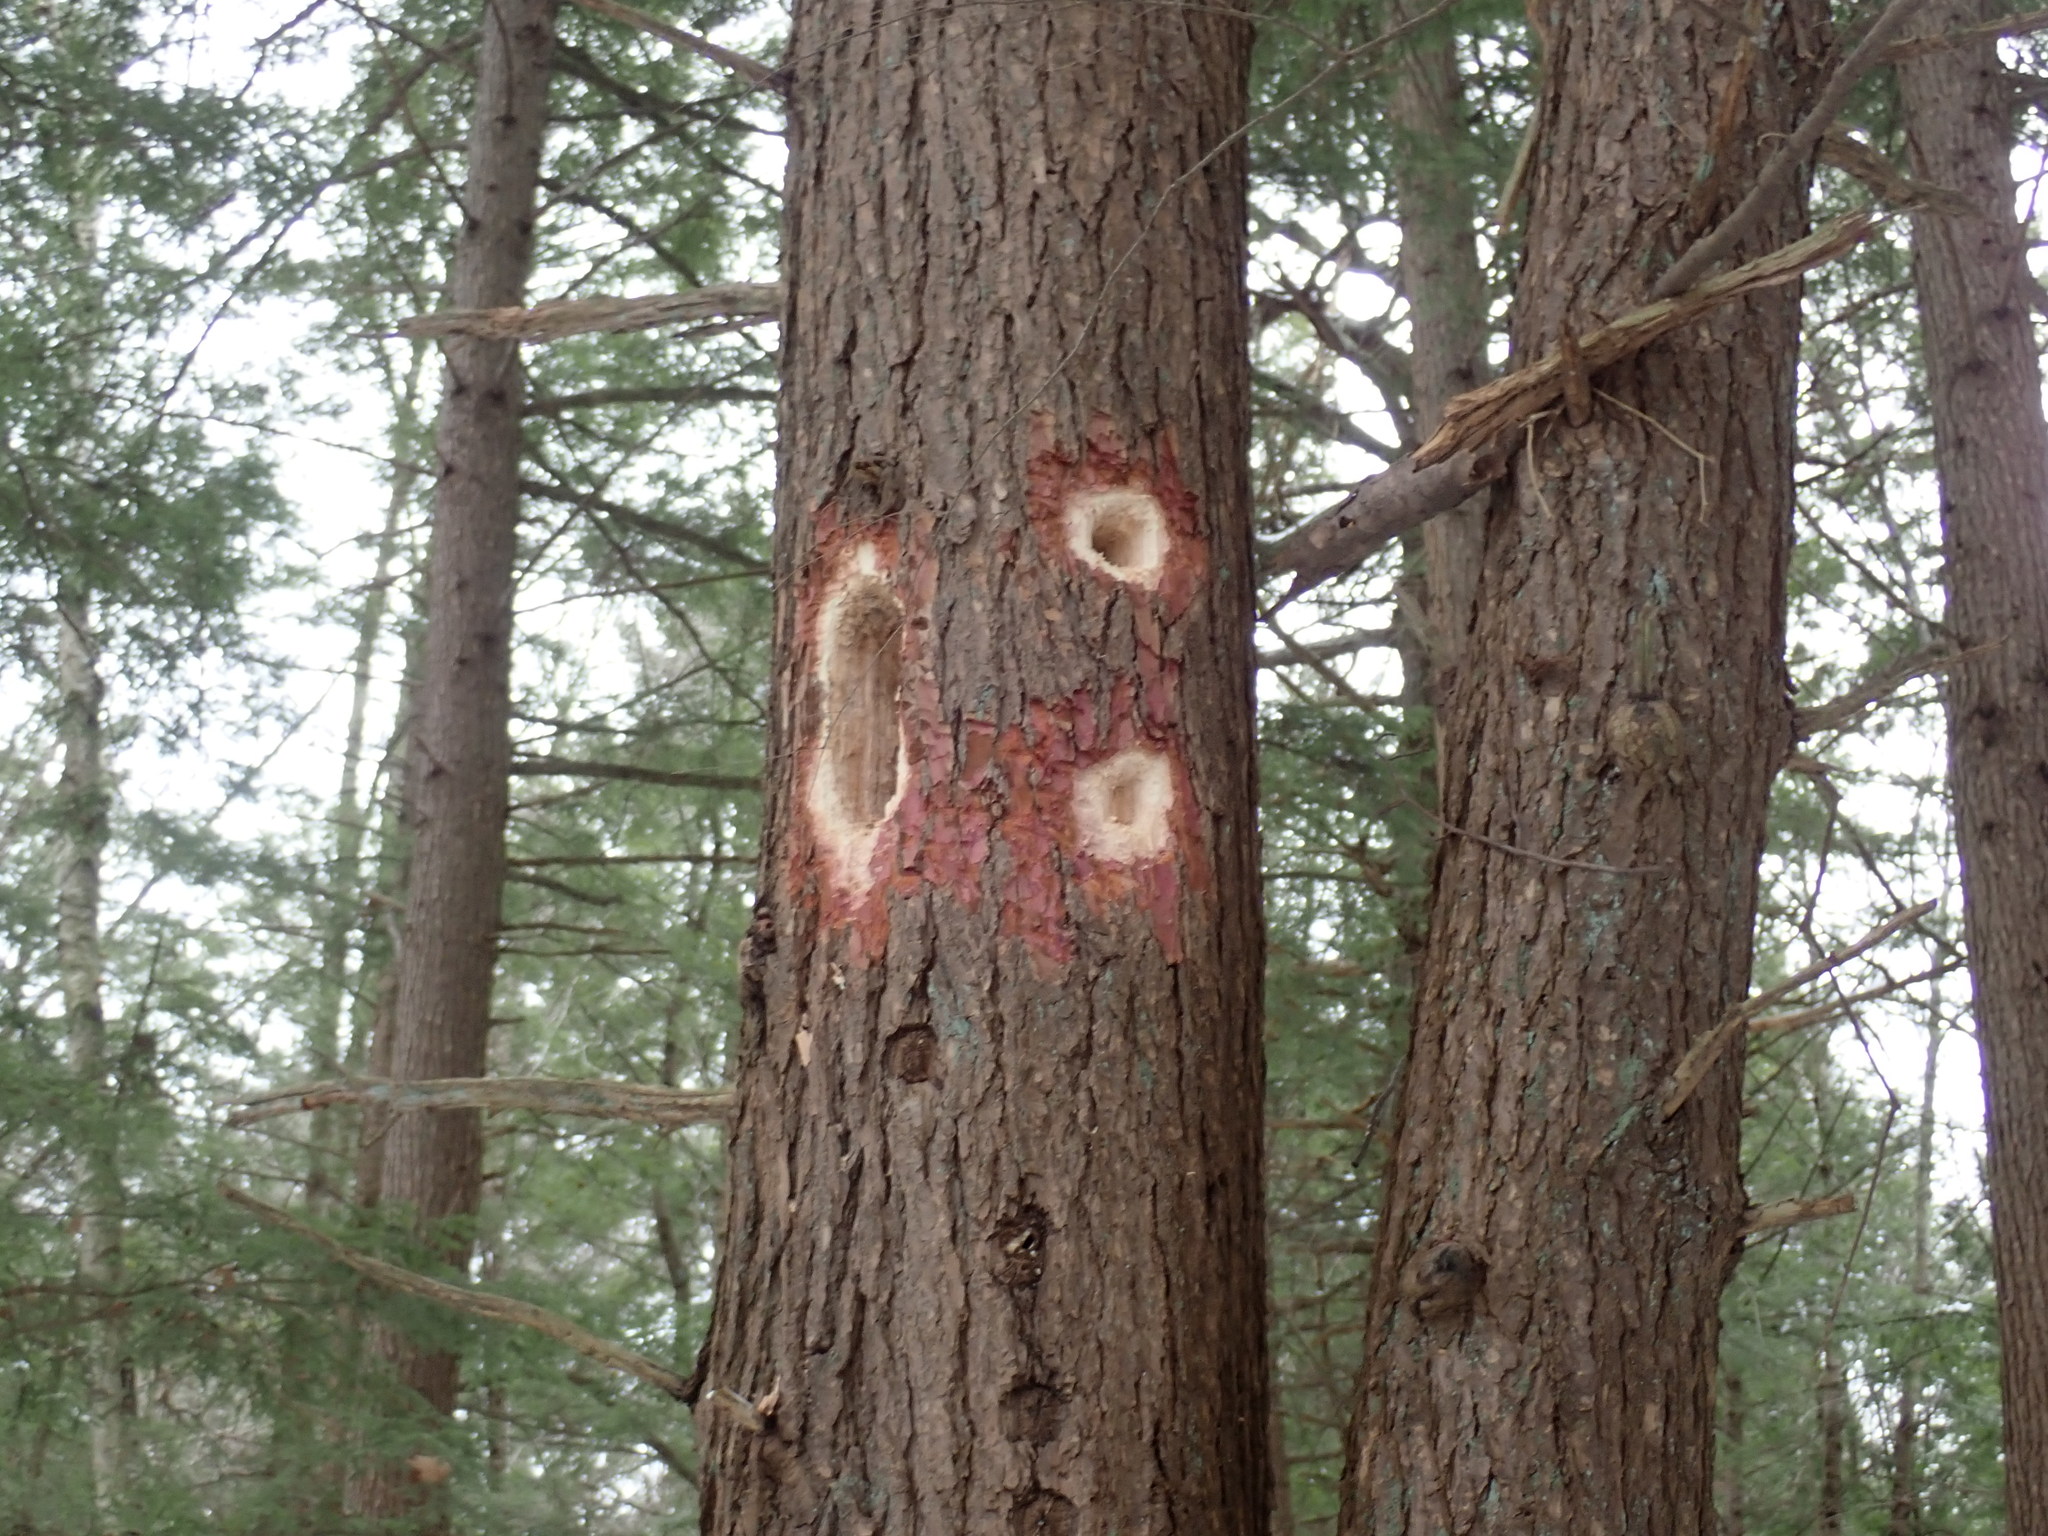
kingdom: Animalia
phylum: Chordata
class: Aves
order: Piciformes
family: Picidae
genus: Dryocopus
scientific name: Dryocopus pileatus
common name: Pileated woodpecker
